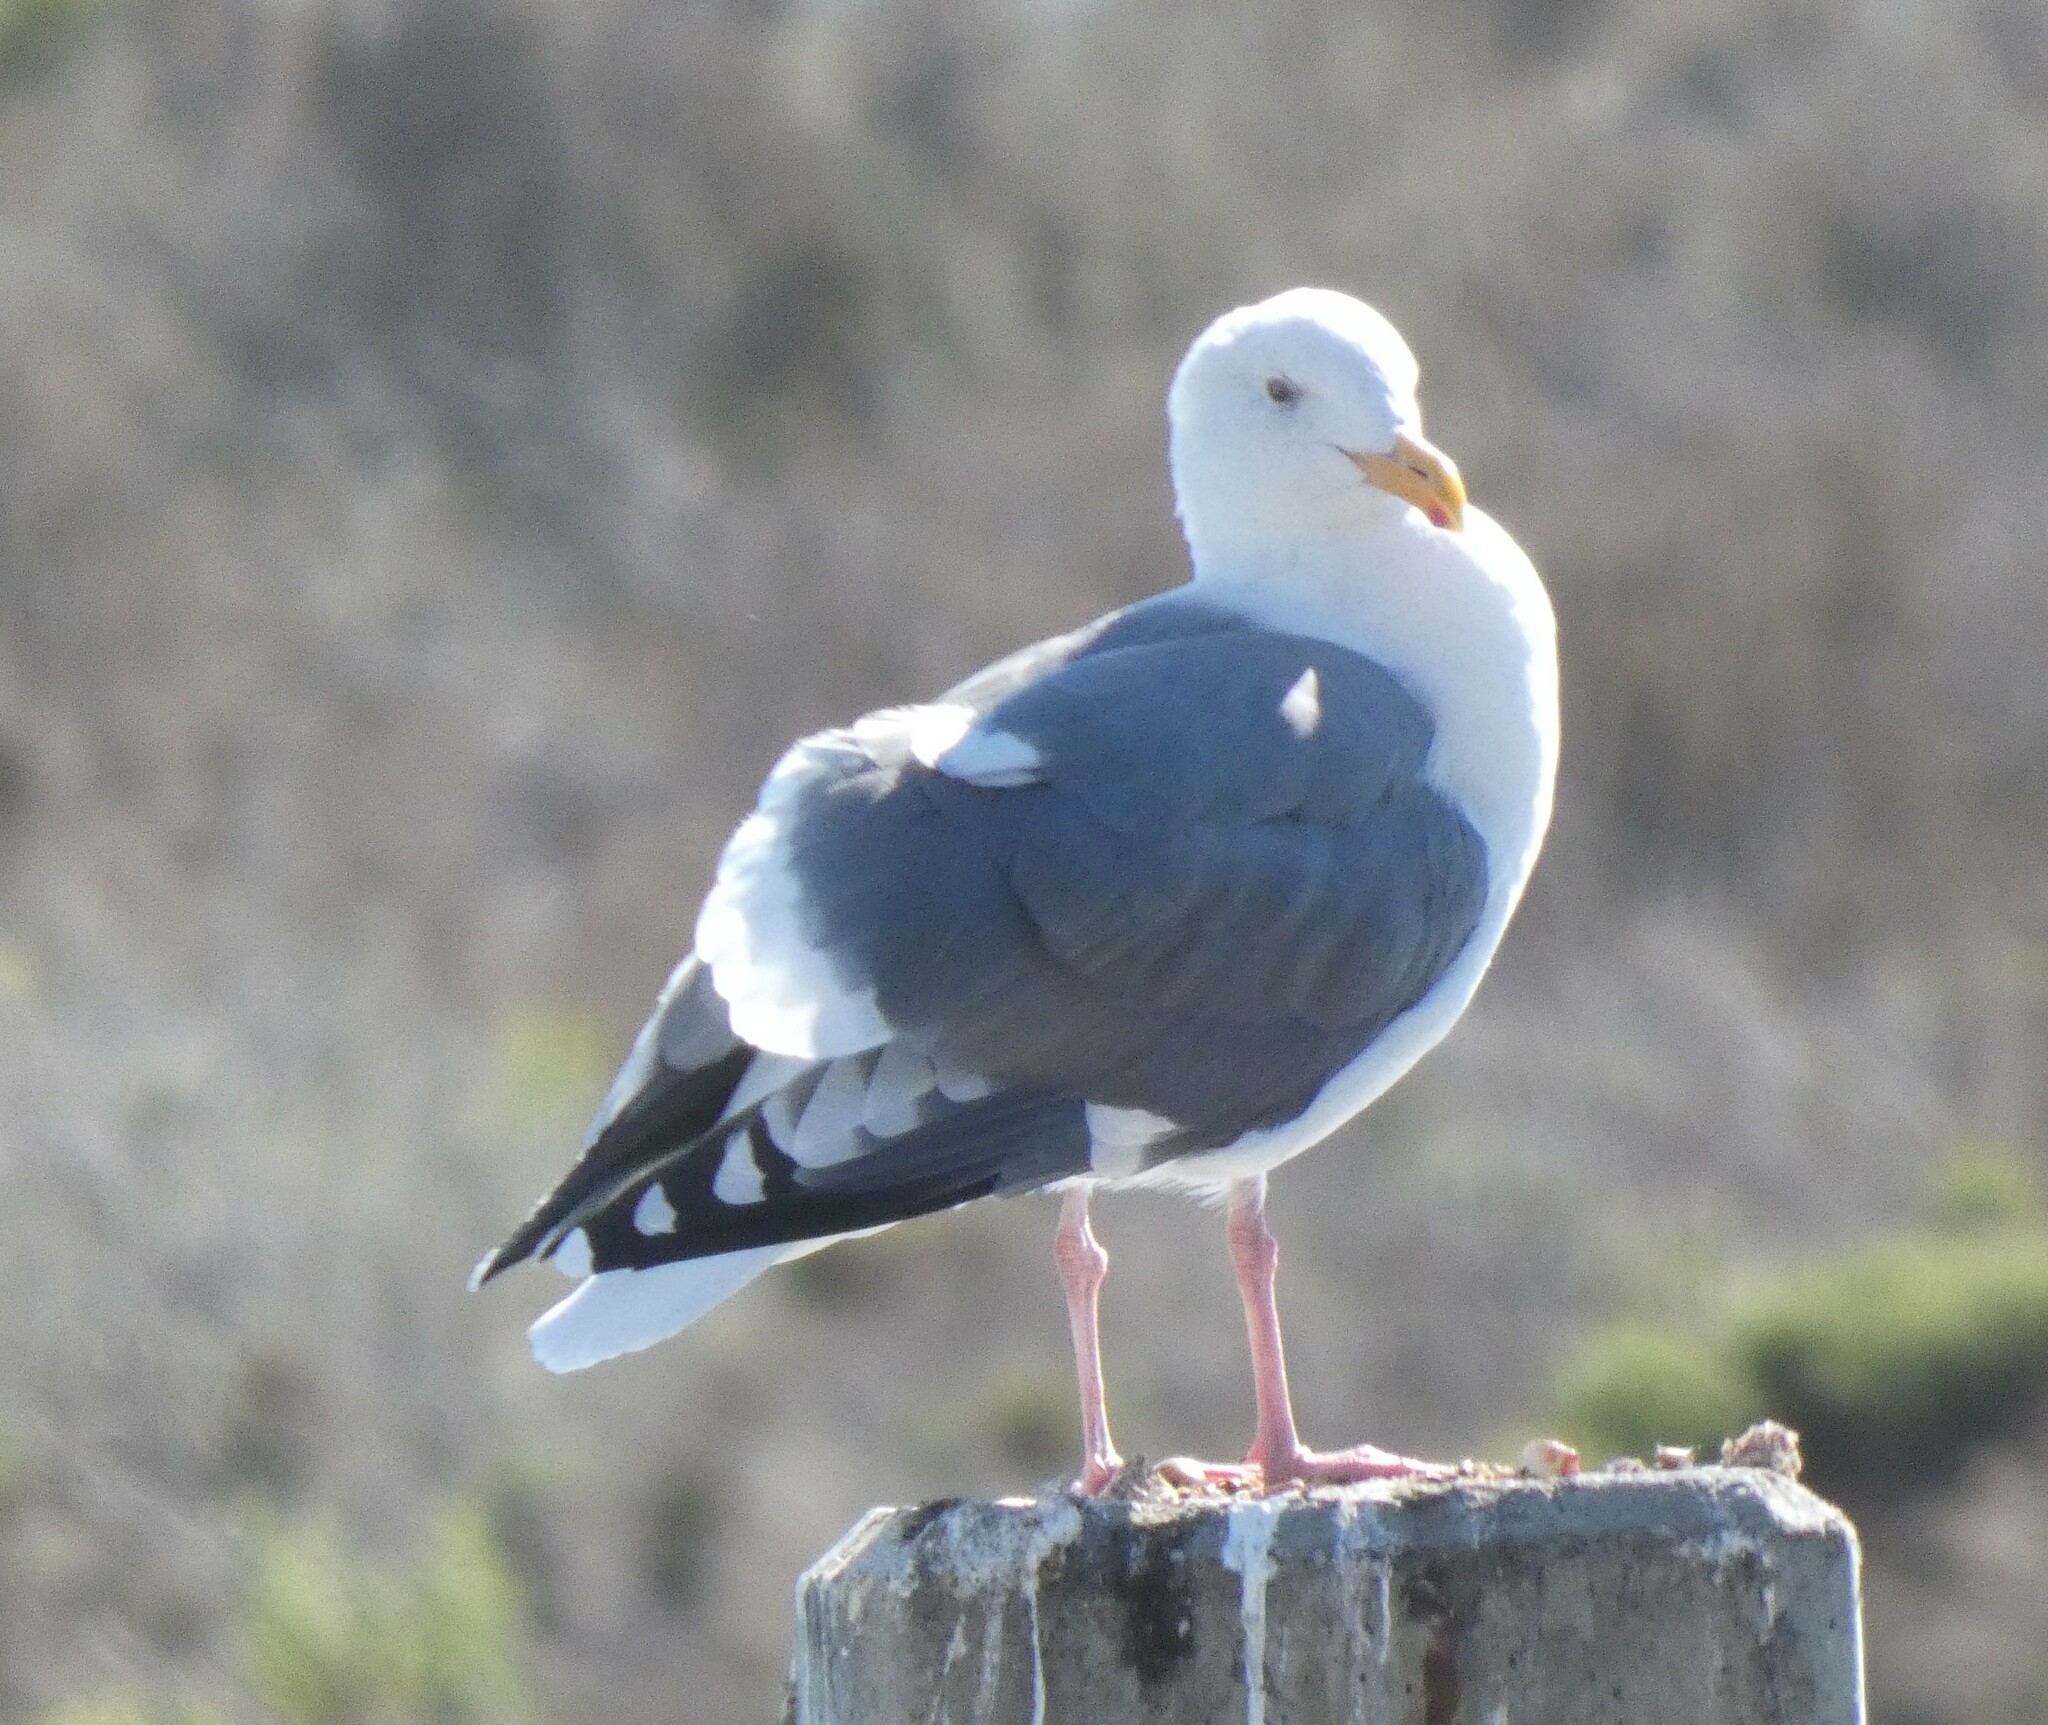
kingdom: Animalia
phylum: Chordata
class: Aves
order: Charadriiformes
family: Laridae
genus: Larus
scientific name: Larus occidentalis
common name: Western gull
